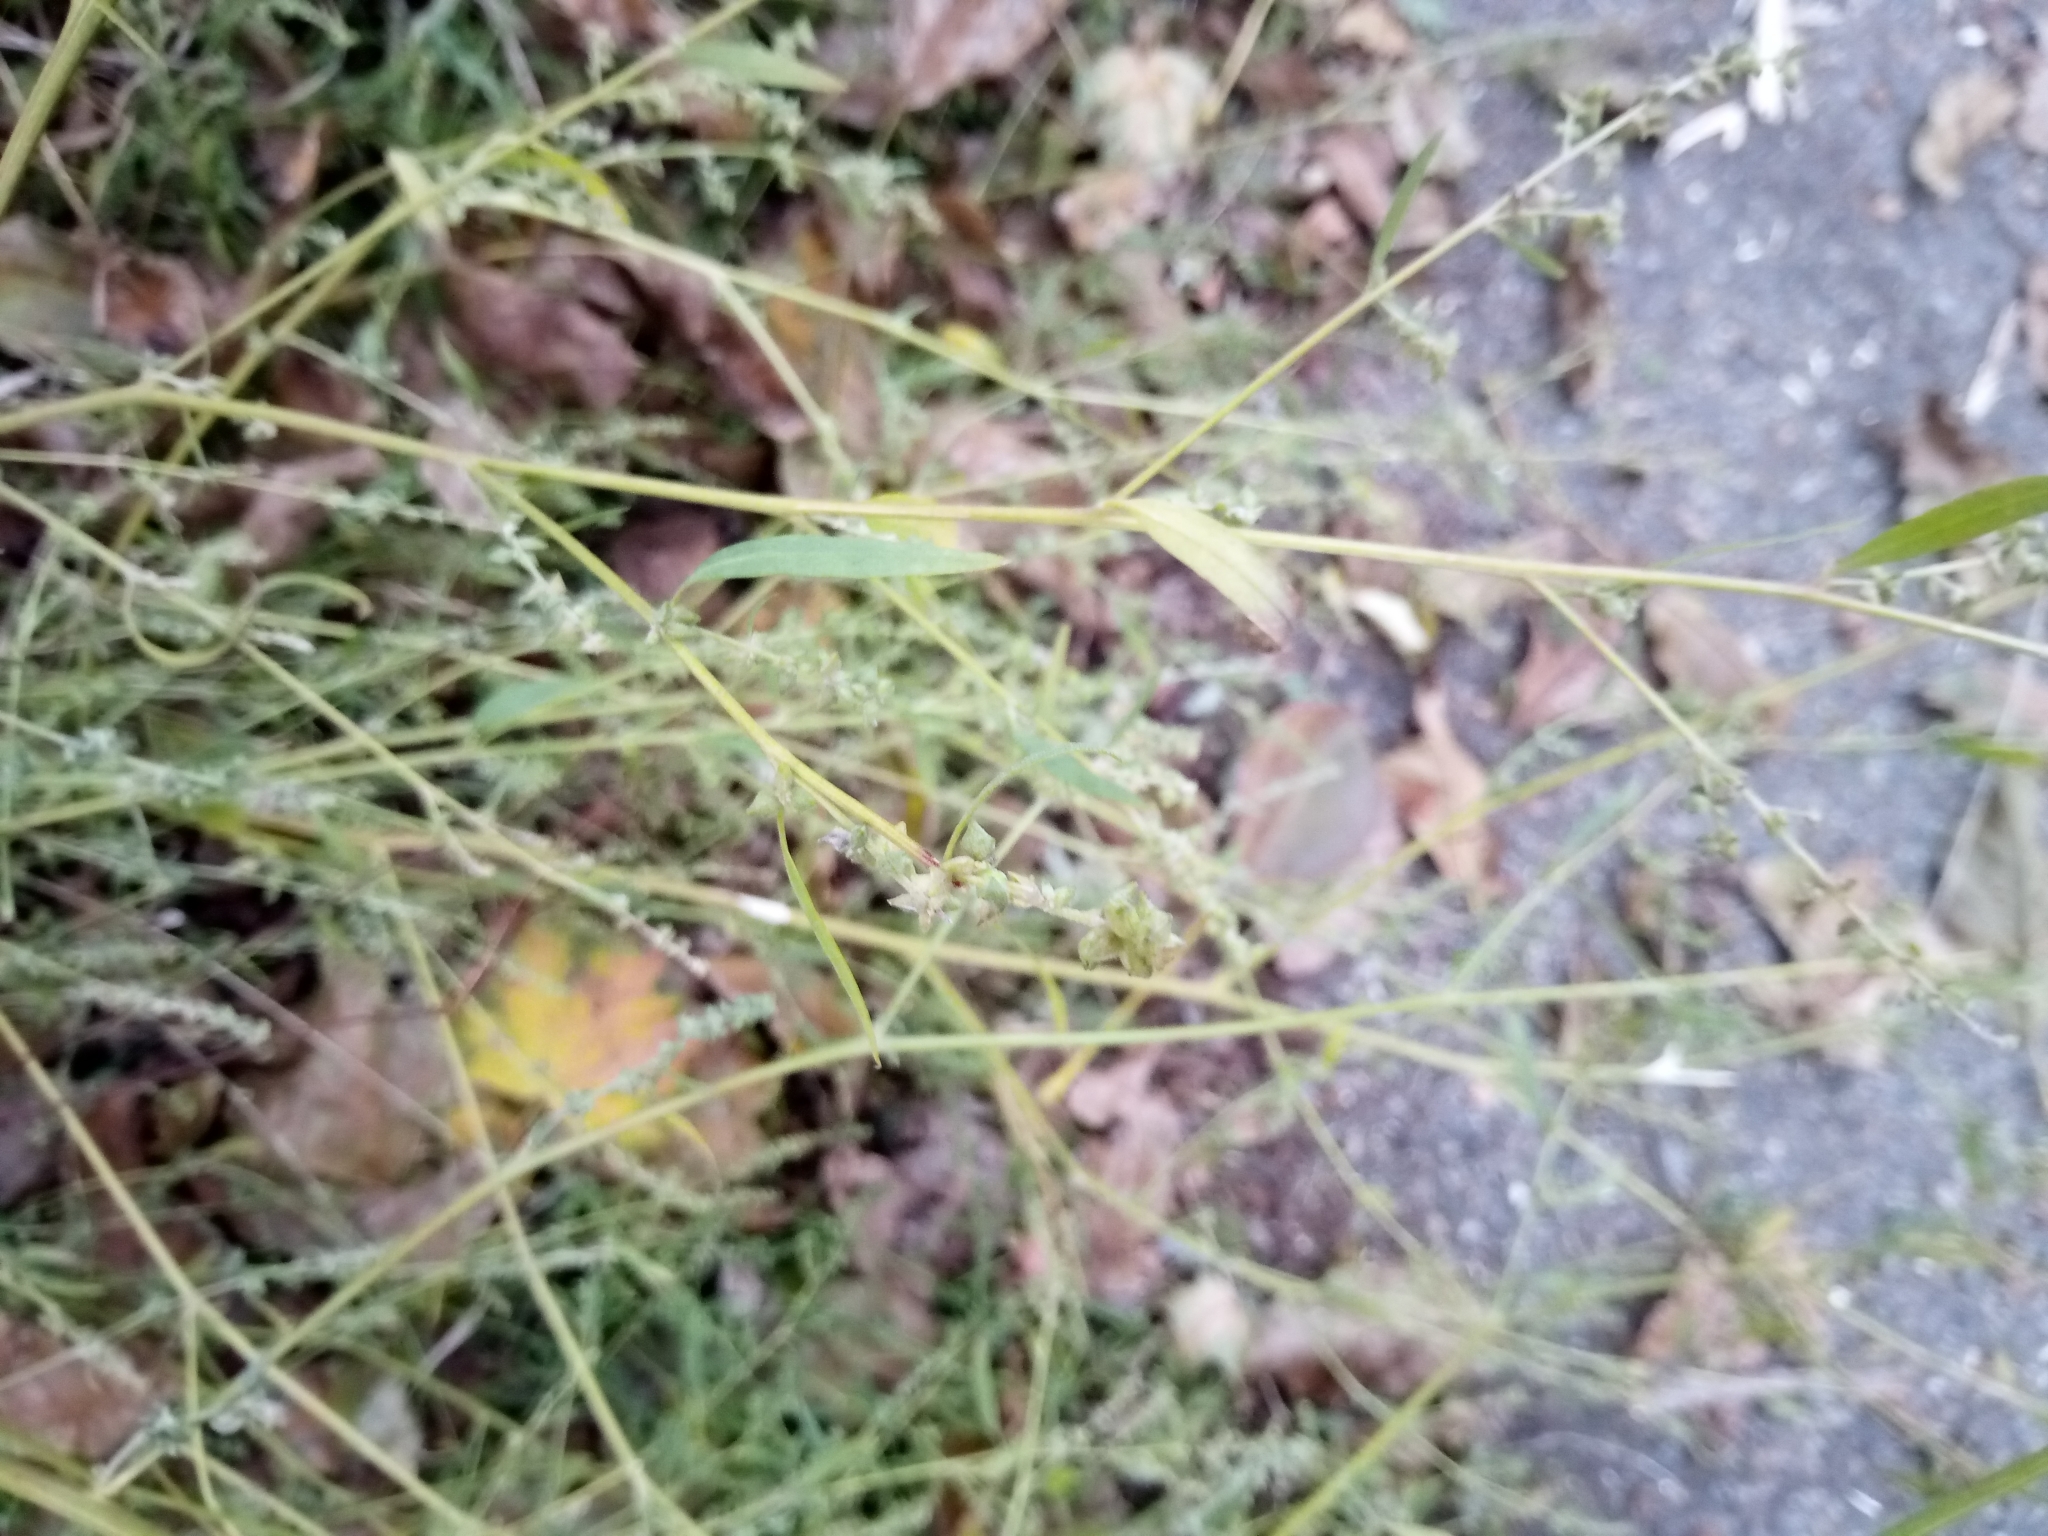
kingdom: Plantae
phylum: Tracheophyta
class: Magnoliopsida
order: Caryophyllales
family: Amaranthaceae
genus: Atriplex
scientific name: Atriplex patula
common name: Common orache
